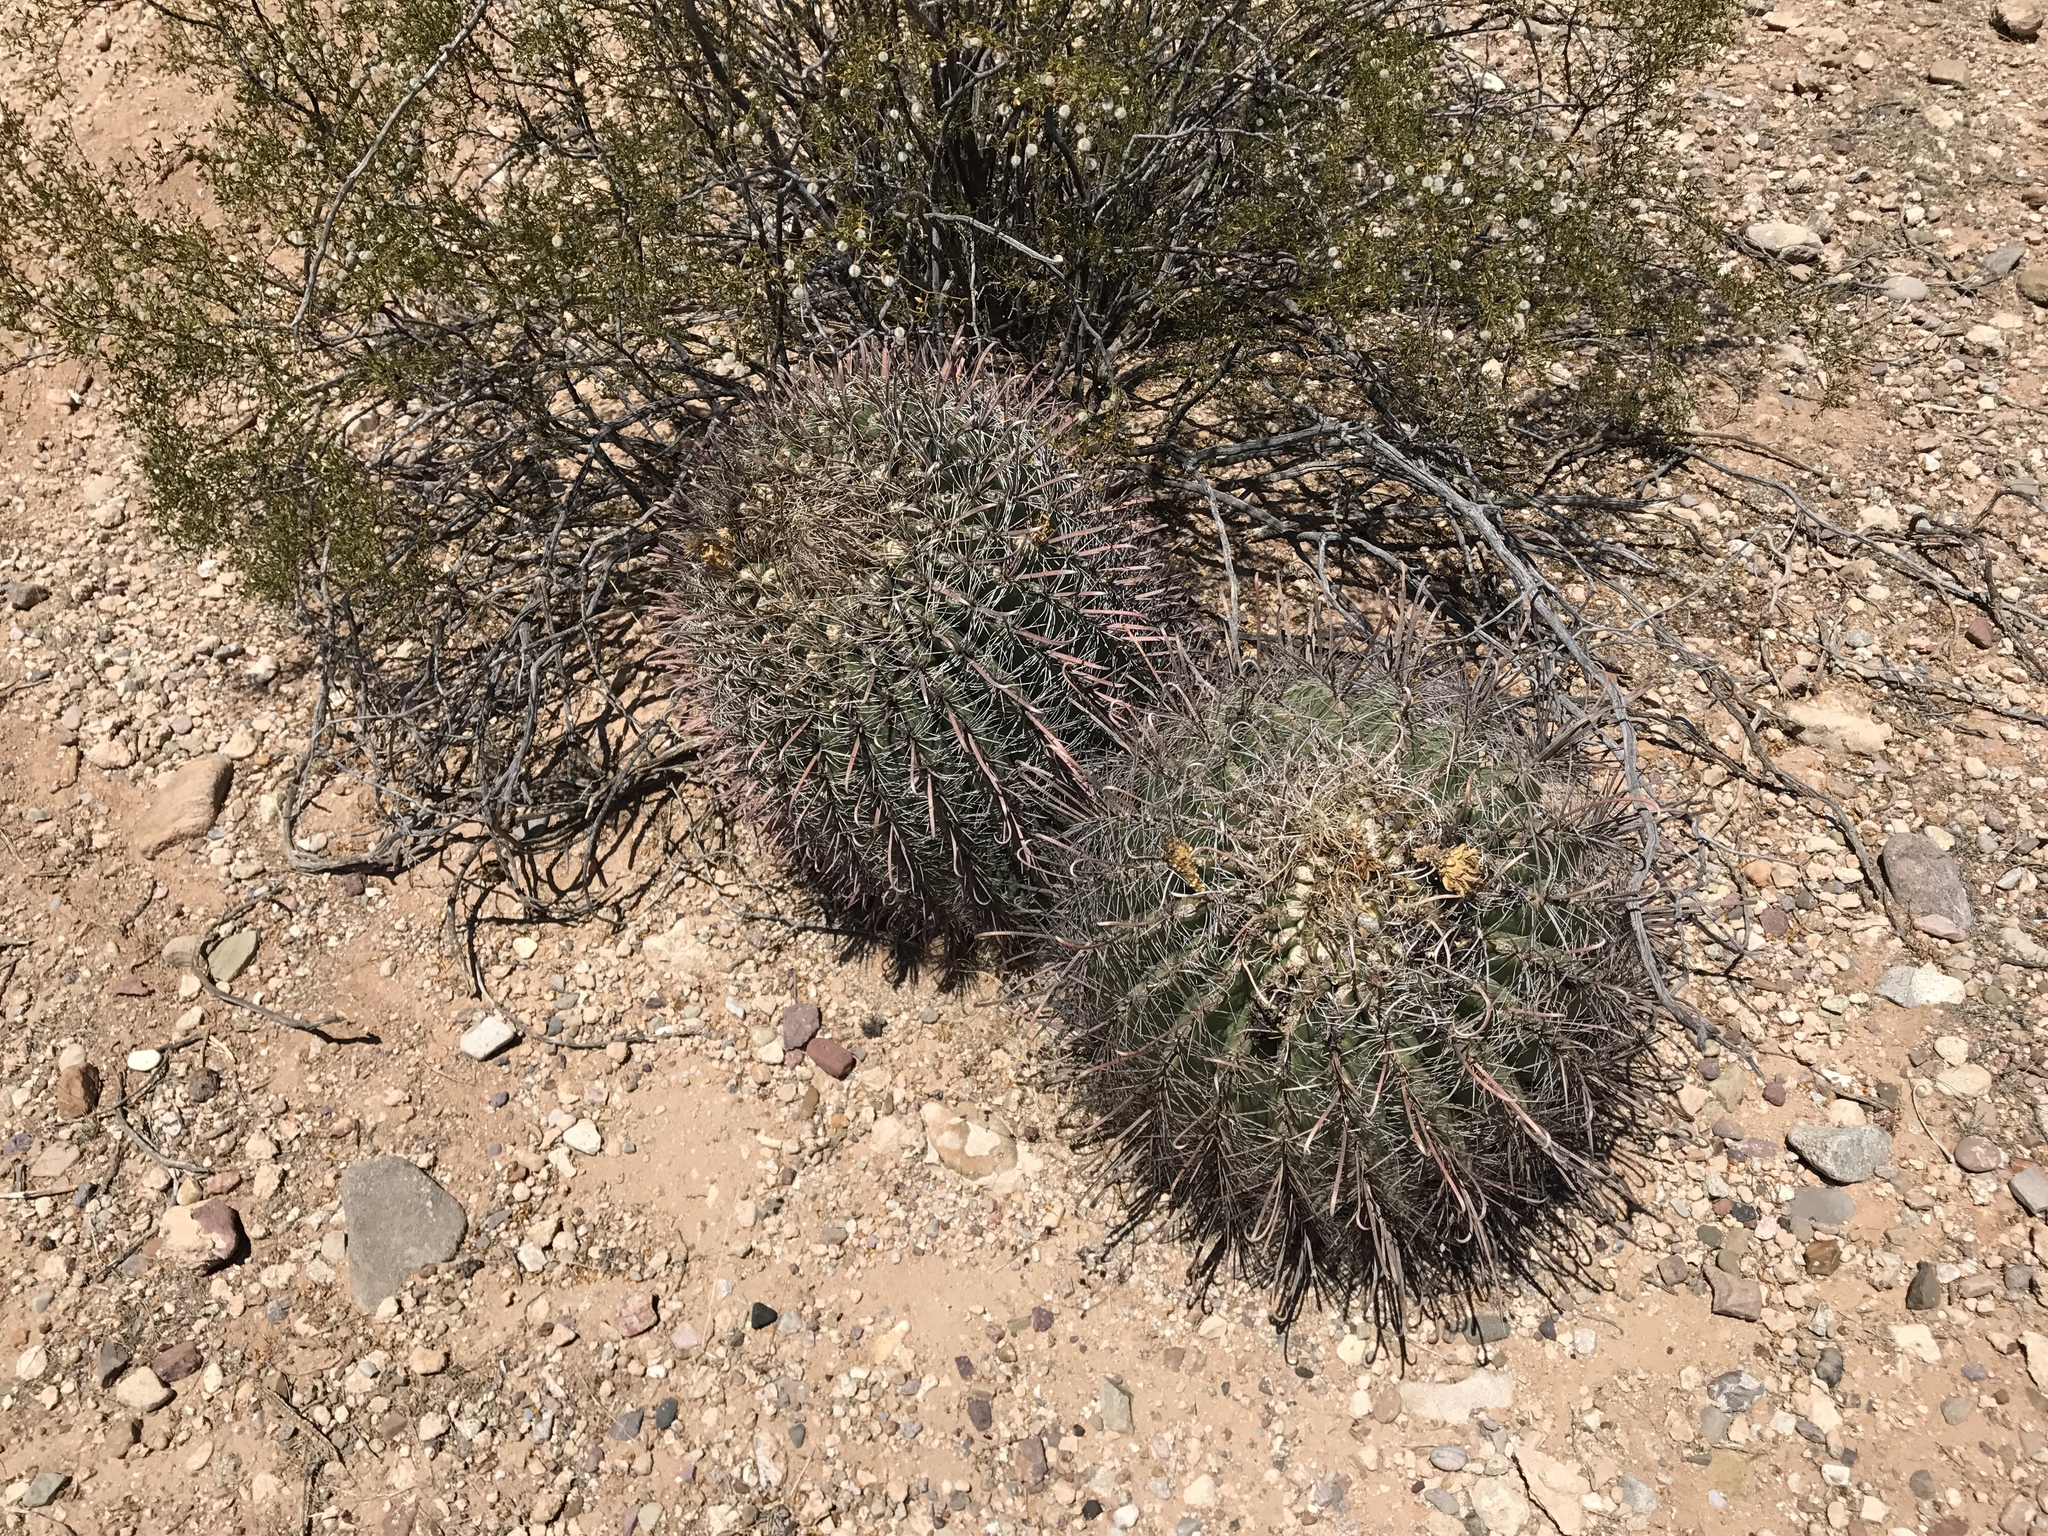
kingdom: Plantae
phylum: Tracheophyta
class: Magnoliopsida
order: Caryophyllales
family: Cactaceae
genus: Ferocactus
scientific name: Ferocactus wislizeni
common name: Candy barrel cactus
